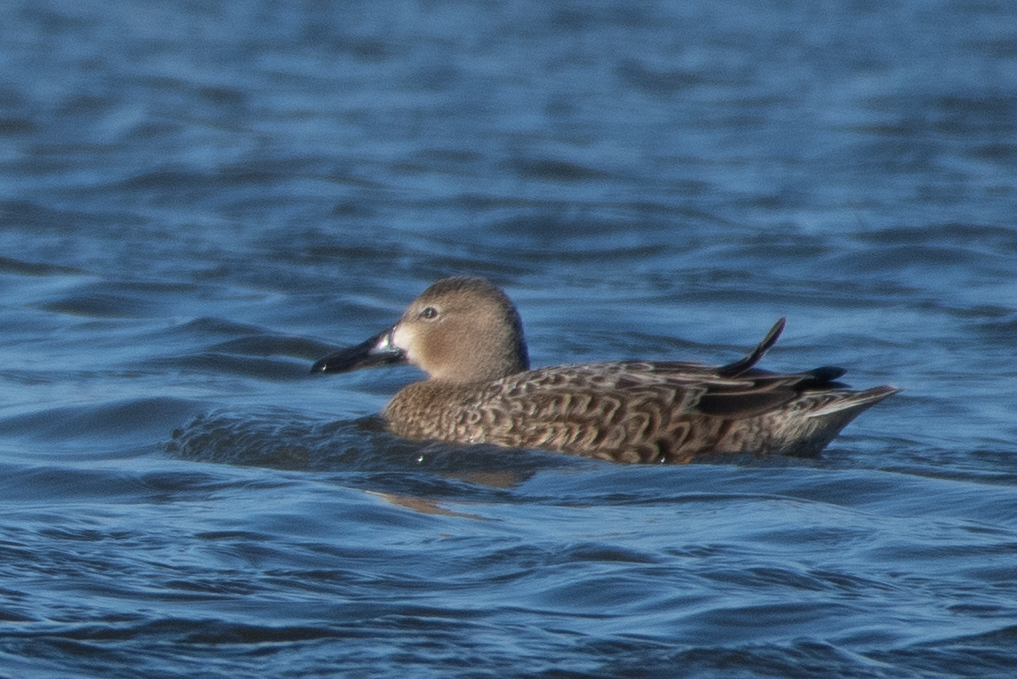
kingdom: Animalia
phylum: Chordata
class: Aves
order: Anseriformes
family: Anatidae
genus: Spatula
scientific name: Spatula cyanoptera
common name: Cinnamon teal
